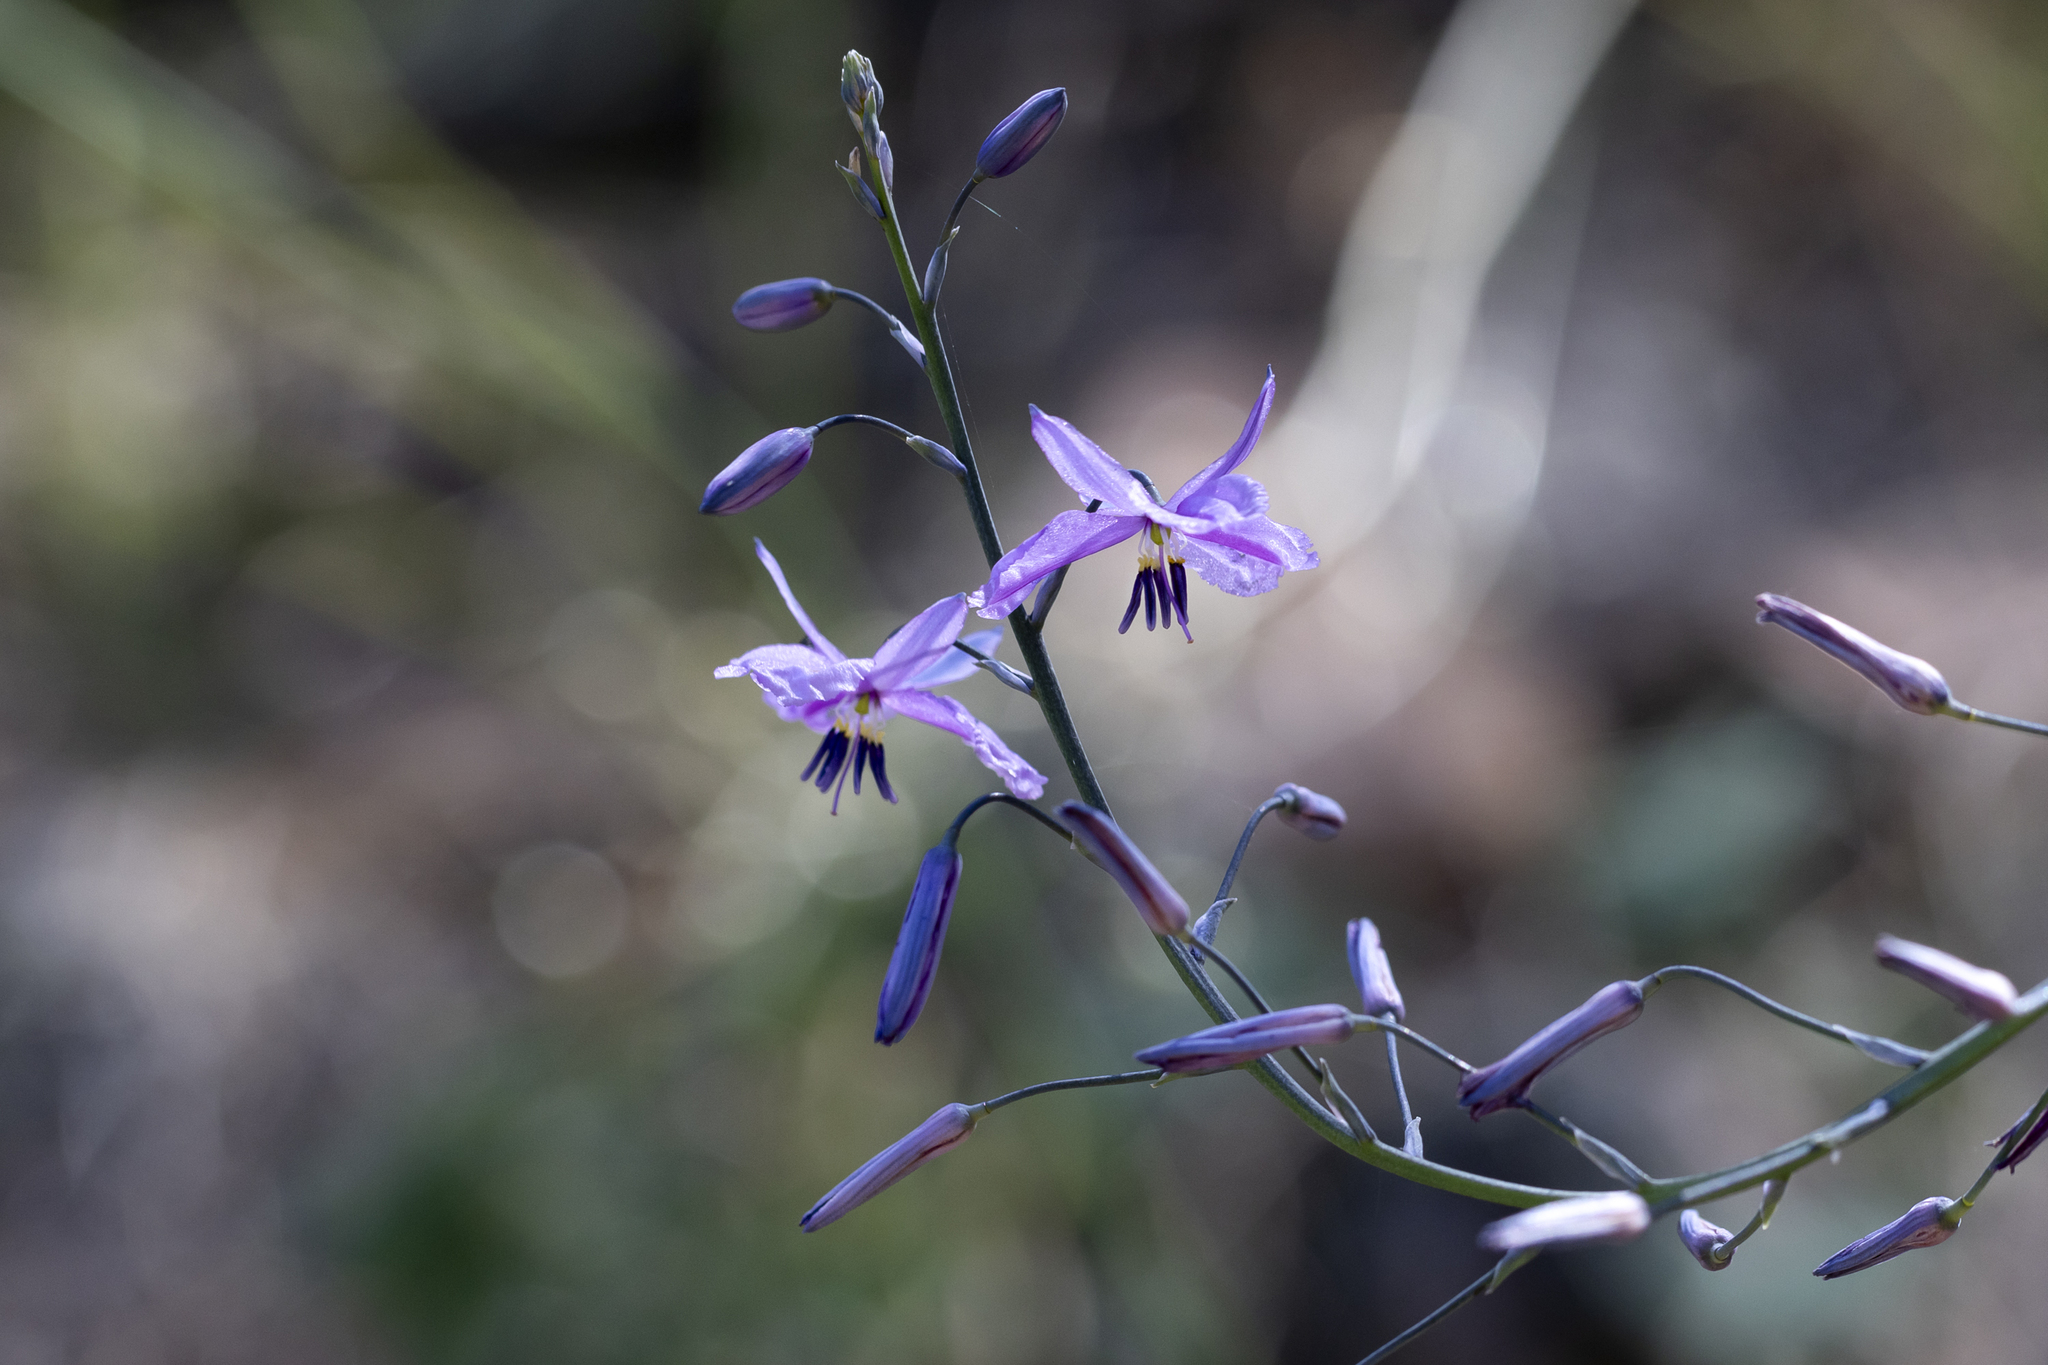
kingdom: Plantae
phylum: Tracheophyta
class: Liliopsida
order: Asparagales
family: Asparagaceae
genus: Arthropodium
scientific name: Arthropodium strictum
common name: Chocolate-lily
